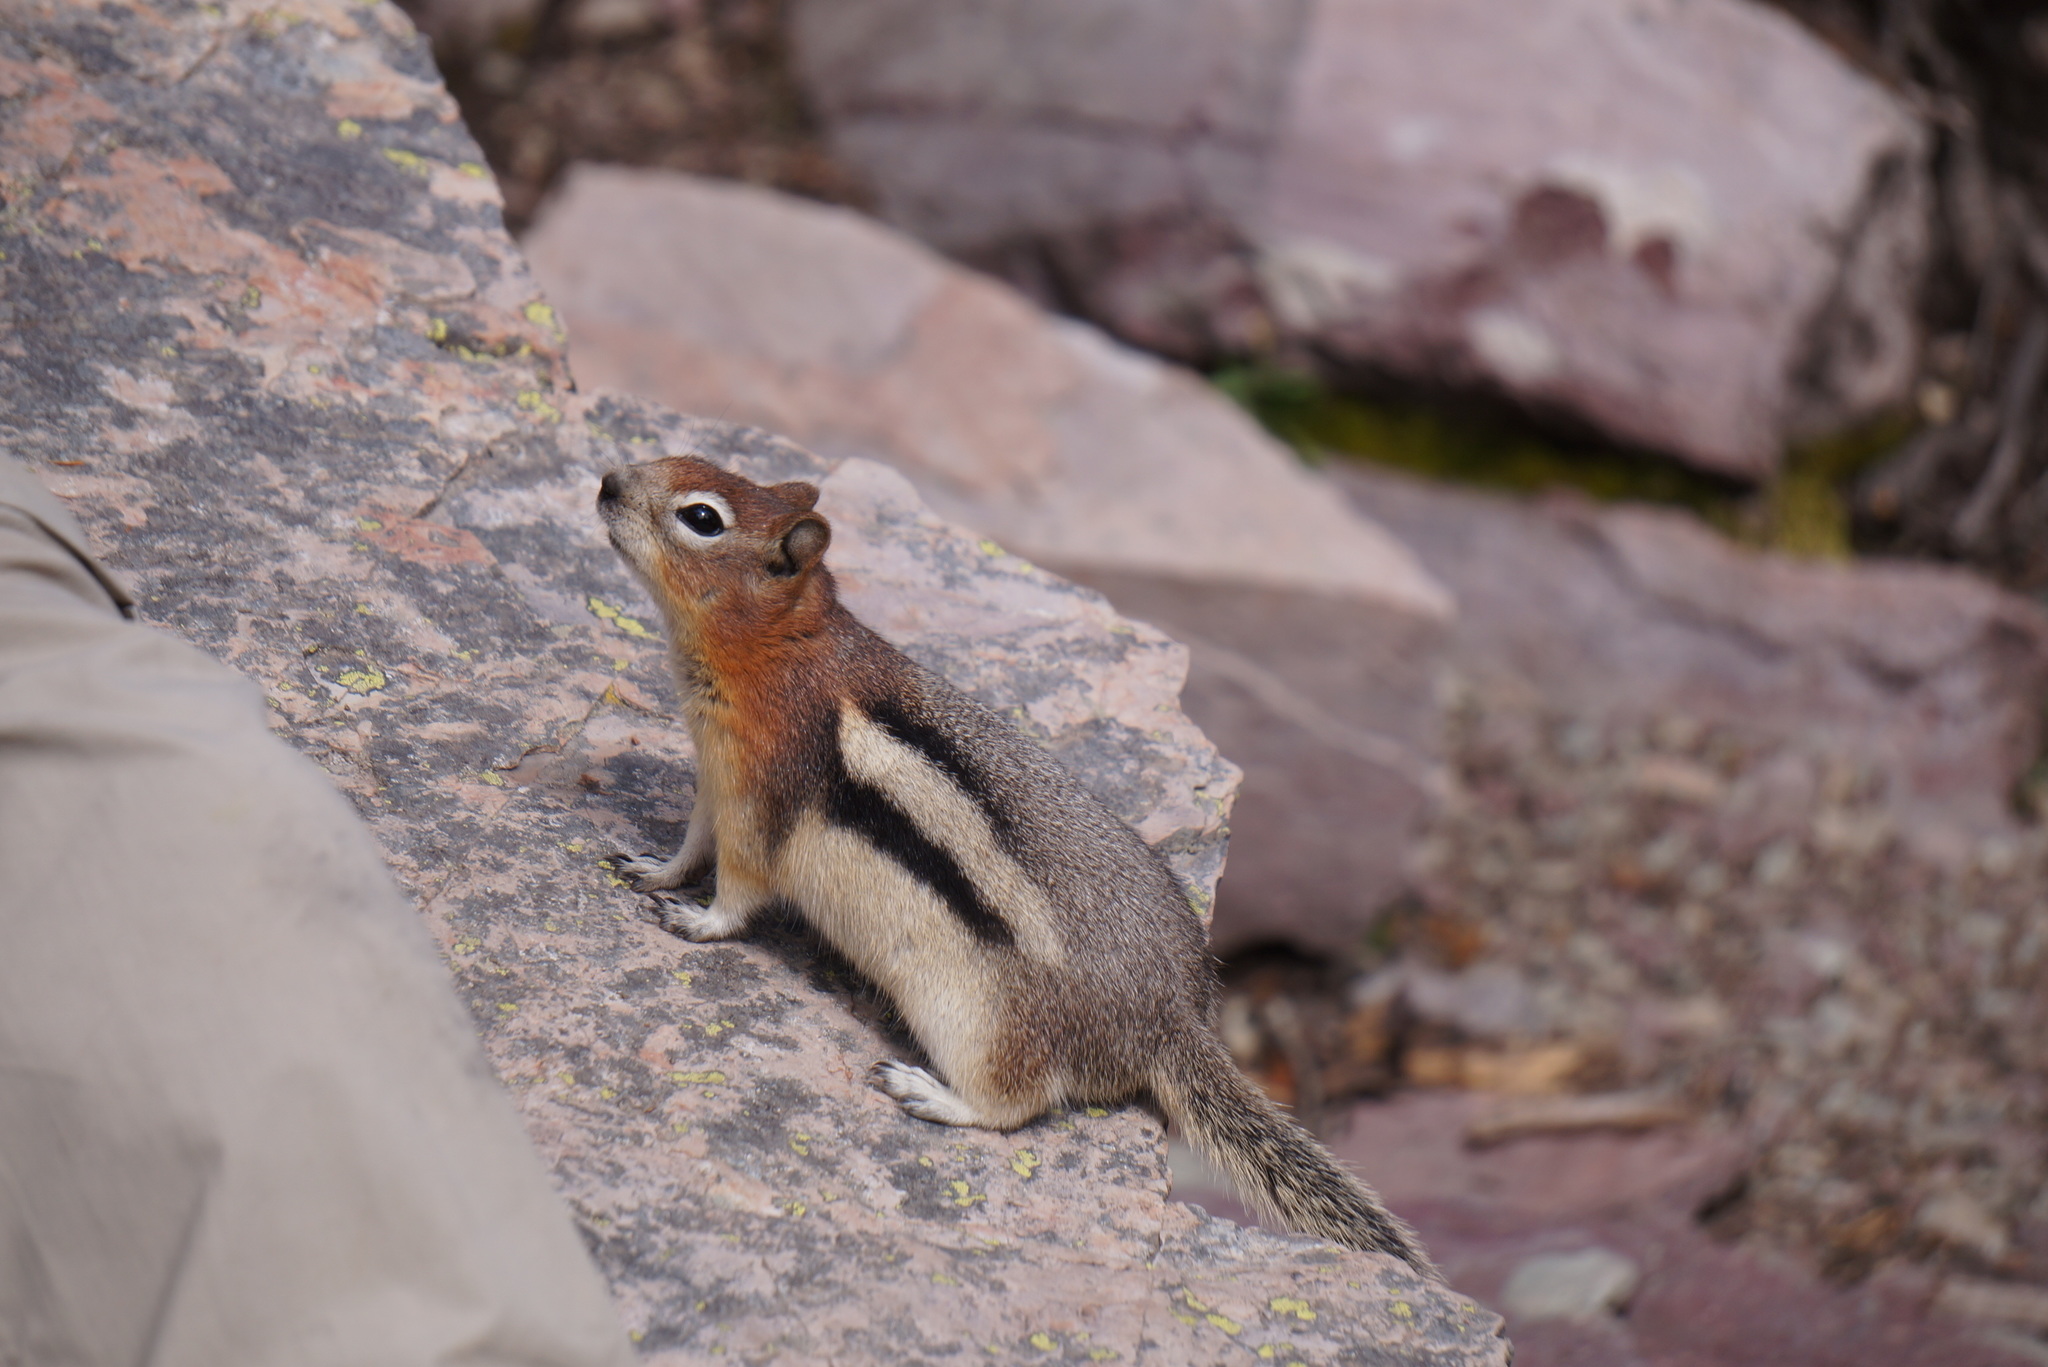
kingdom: Animalia
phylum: Chordata
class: Mammalia
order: Rodentia
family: Sciuridae
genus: Callospermophilus
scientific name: Callospermophilus lateralis
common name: Golden-mantled ground squirrel
